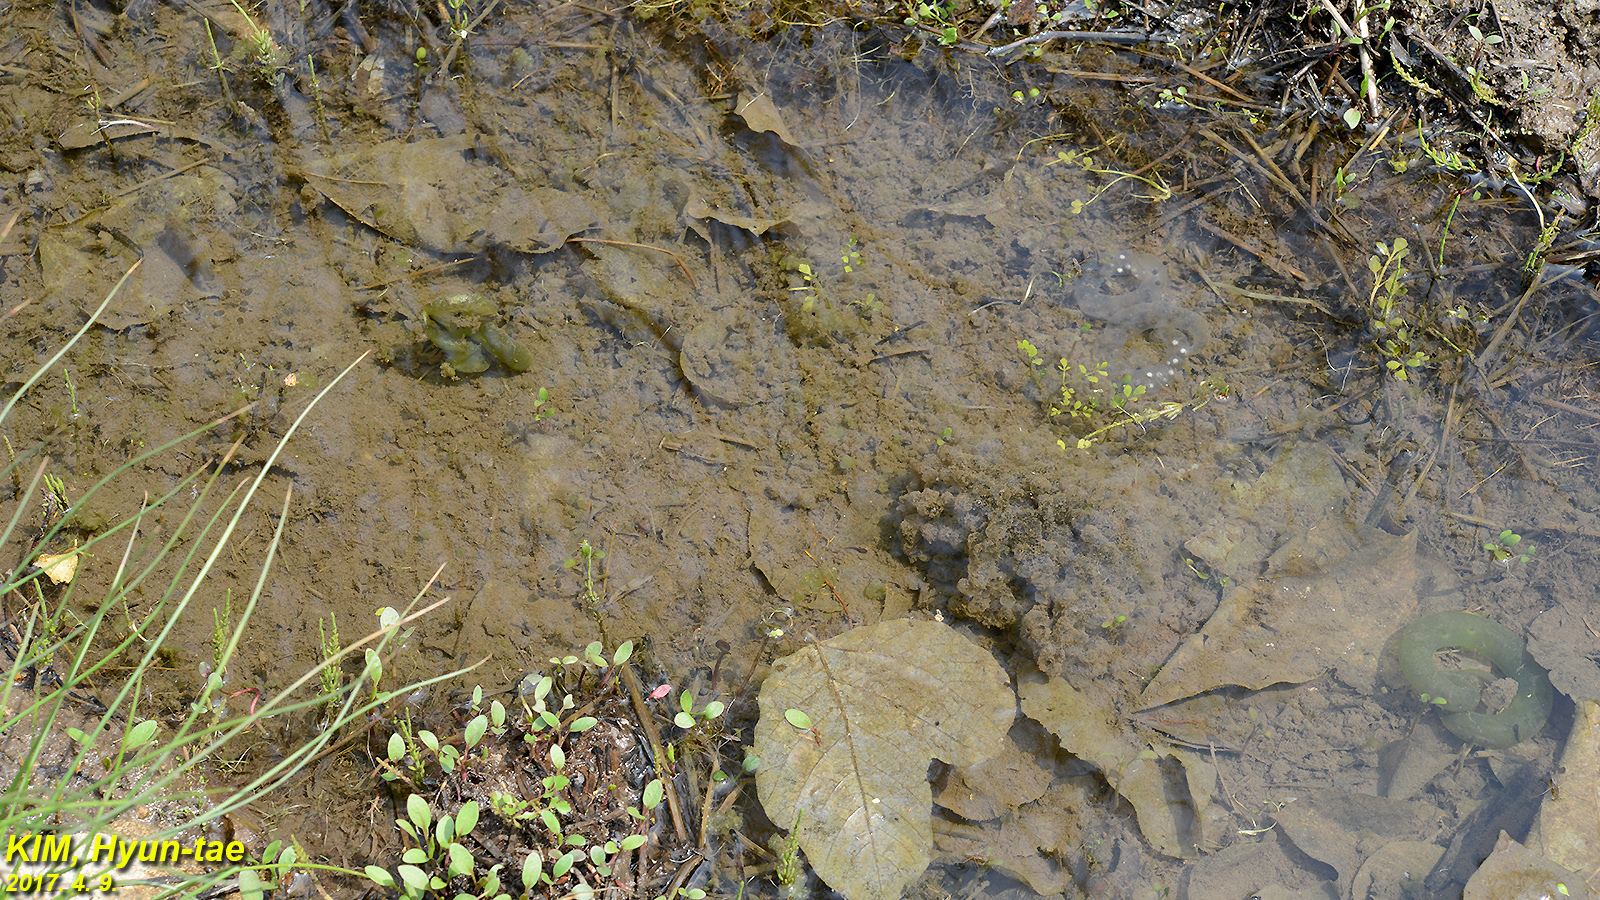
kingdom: Animalia
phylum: Chordata
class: Amphibia
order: Caudata
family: Hynobiidae
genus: Hynobius
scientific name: Hynobius leechii
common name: Gensan salamander
